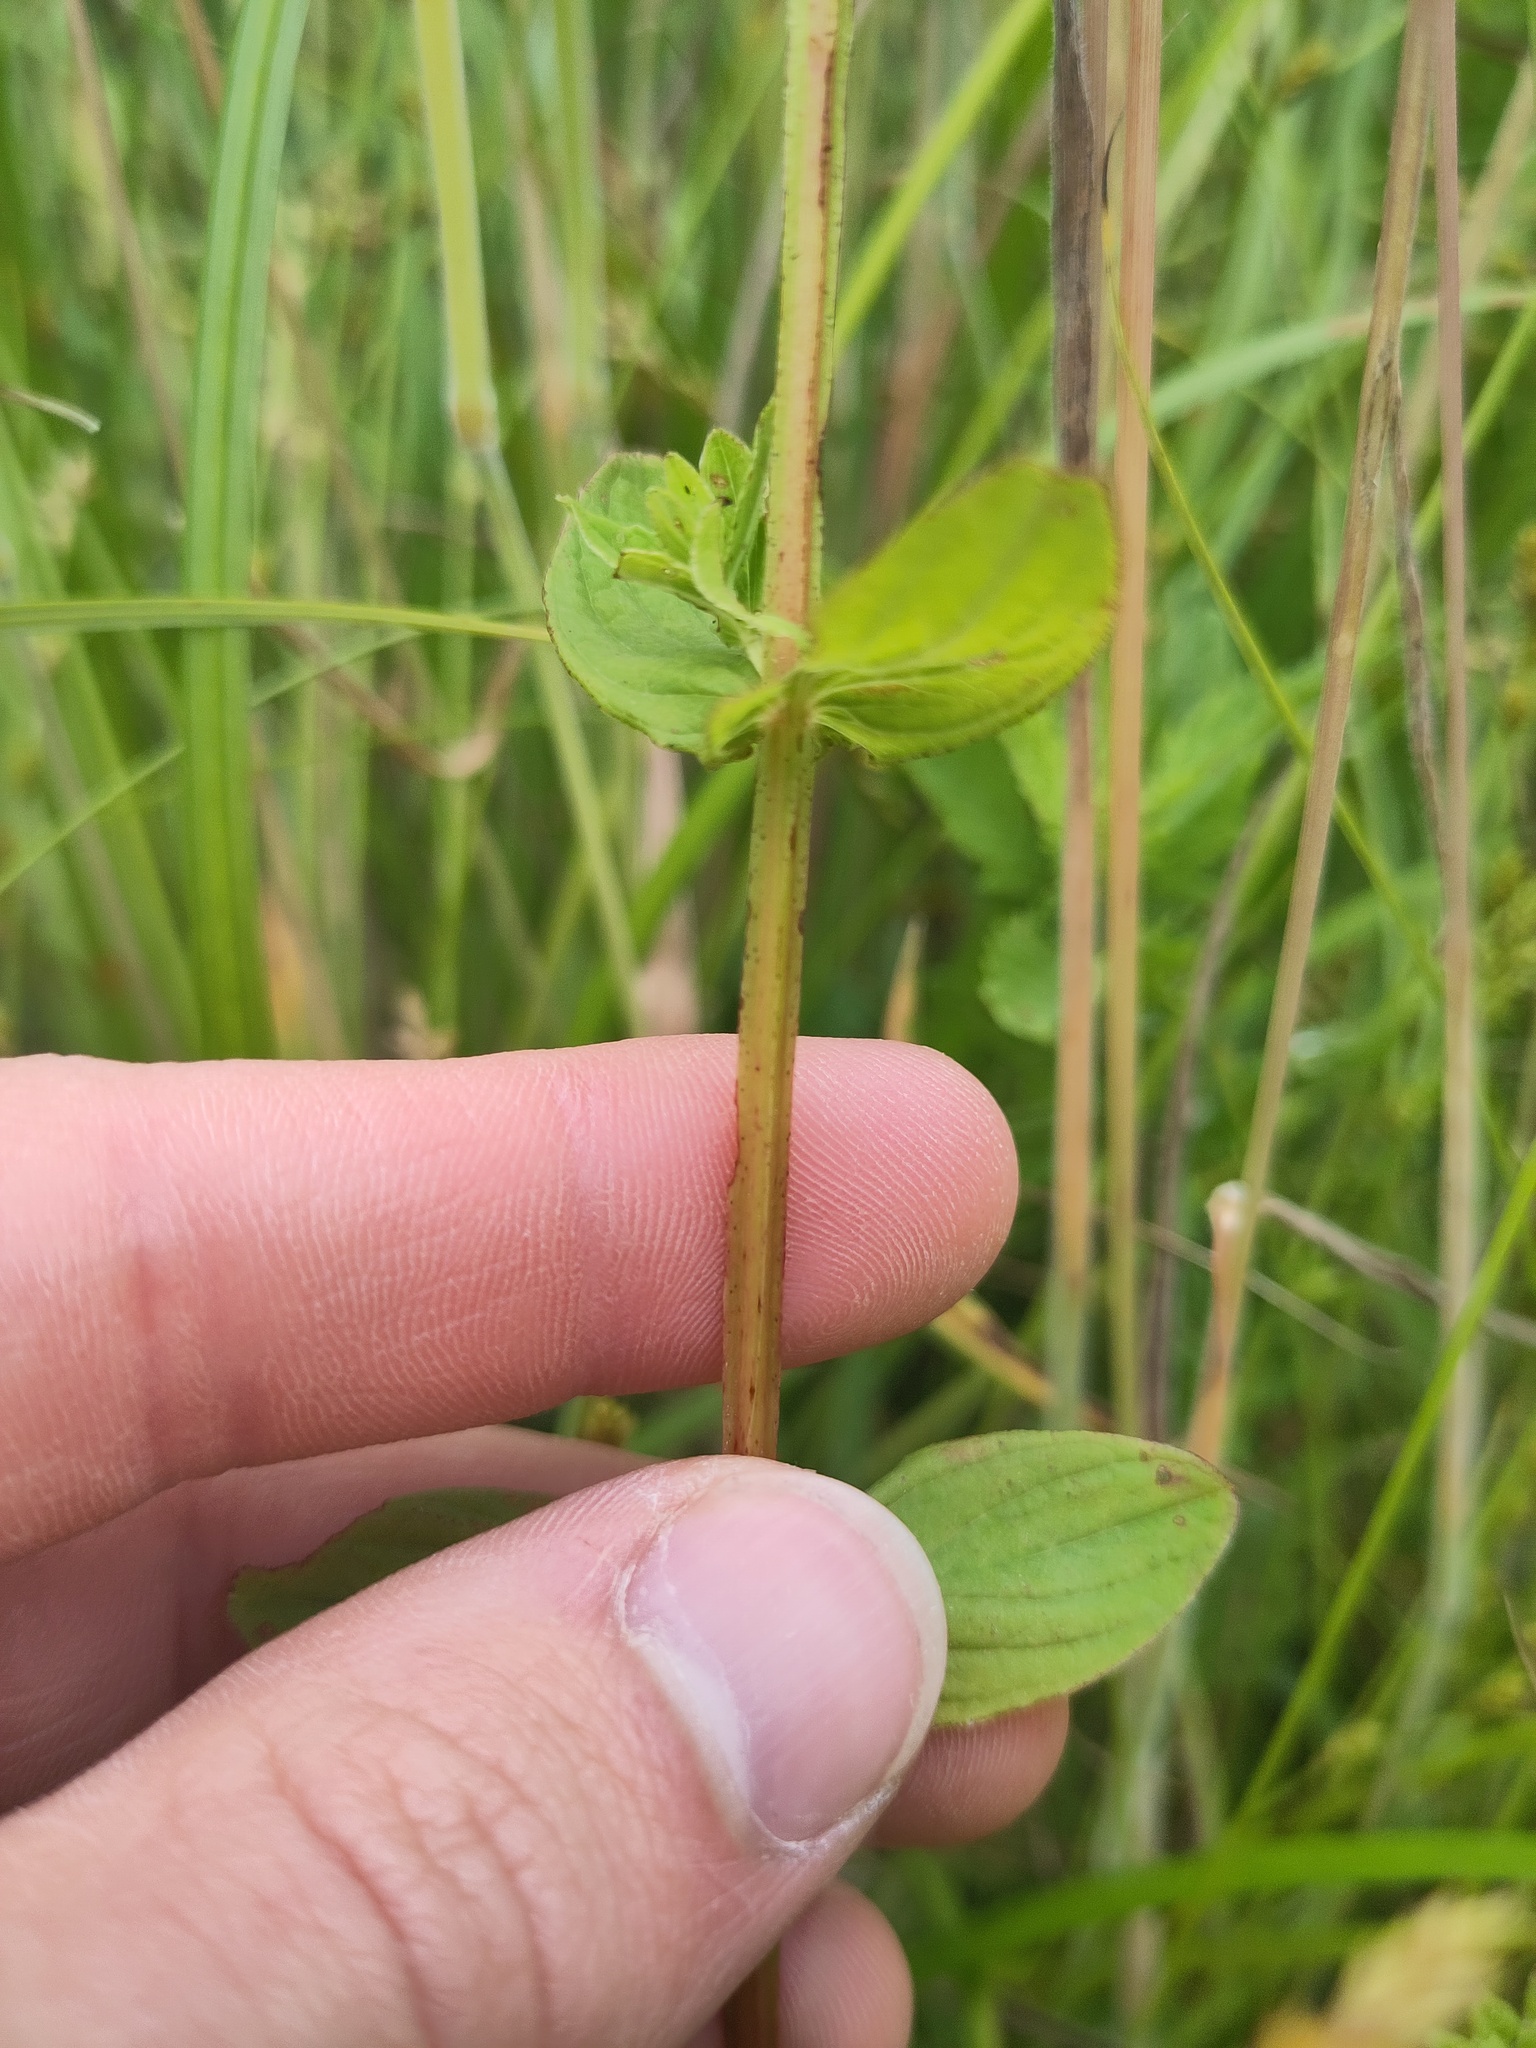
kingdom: Plantae
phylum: Tracheophyta
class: Magnoliopsida
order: Malpighiales
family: Hypericaceae
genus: Hypericum
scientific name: Hypericum tetrapterum
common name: Square-stalked st. john's-wort
